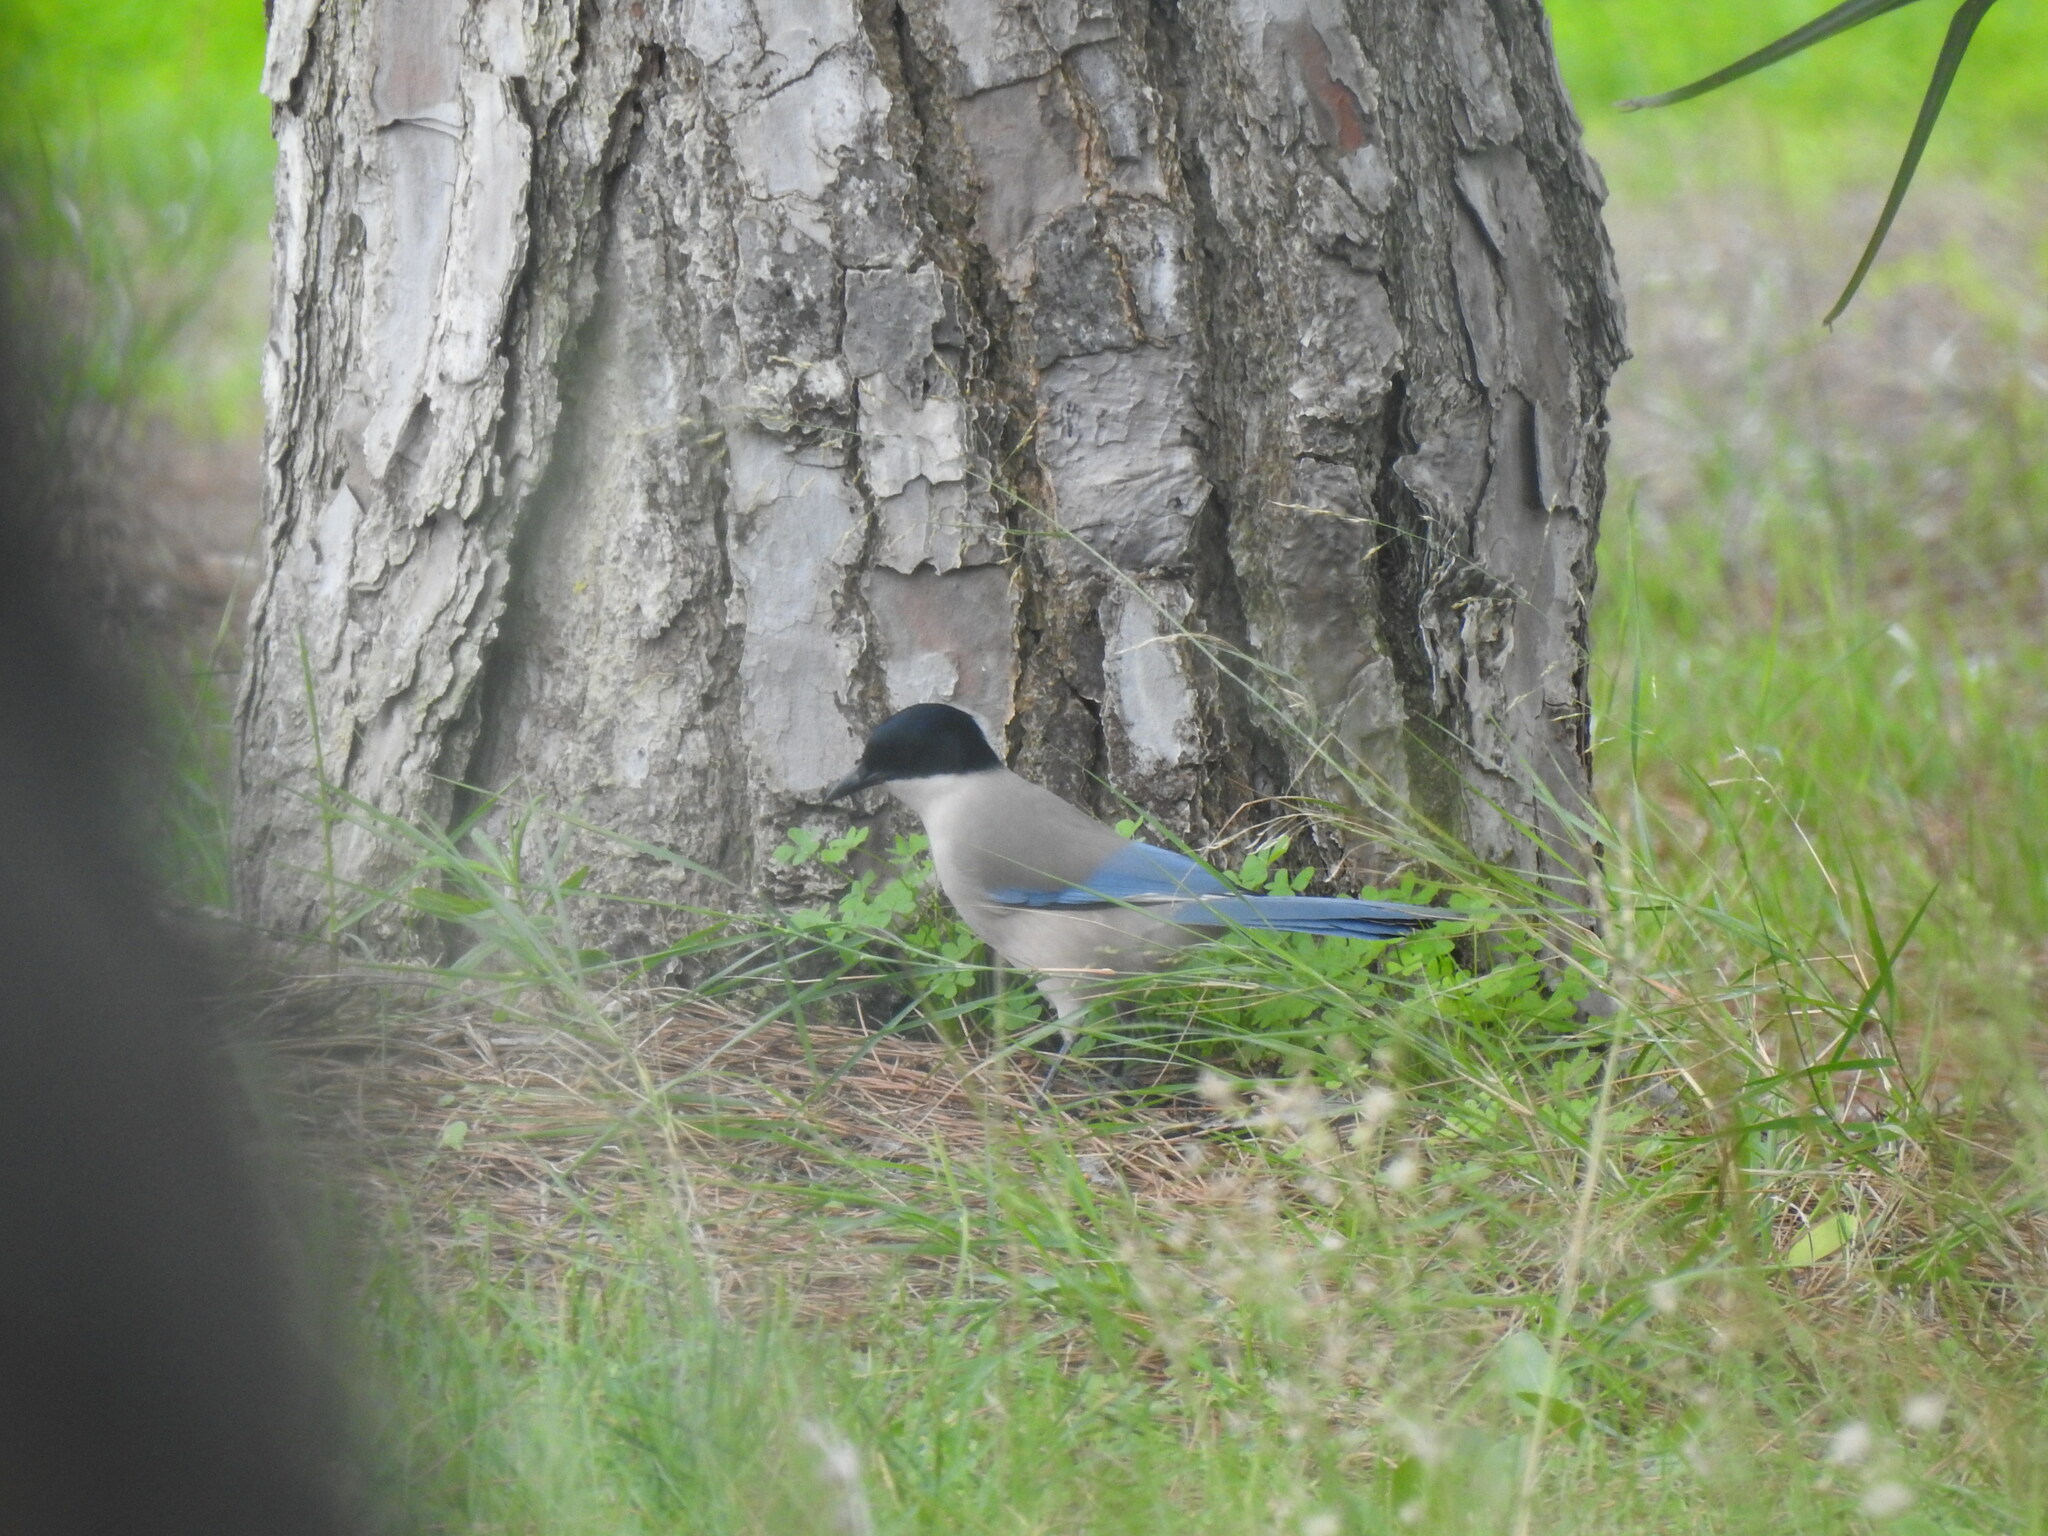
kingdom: Animalia
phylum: Chordata
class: Aves
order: Passeriformes
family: Corvidae
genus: Cyanopica
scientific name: Cyanopica cooki
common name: Iberian magpie
